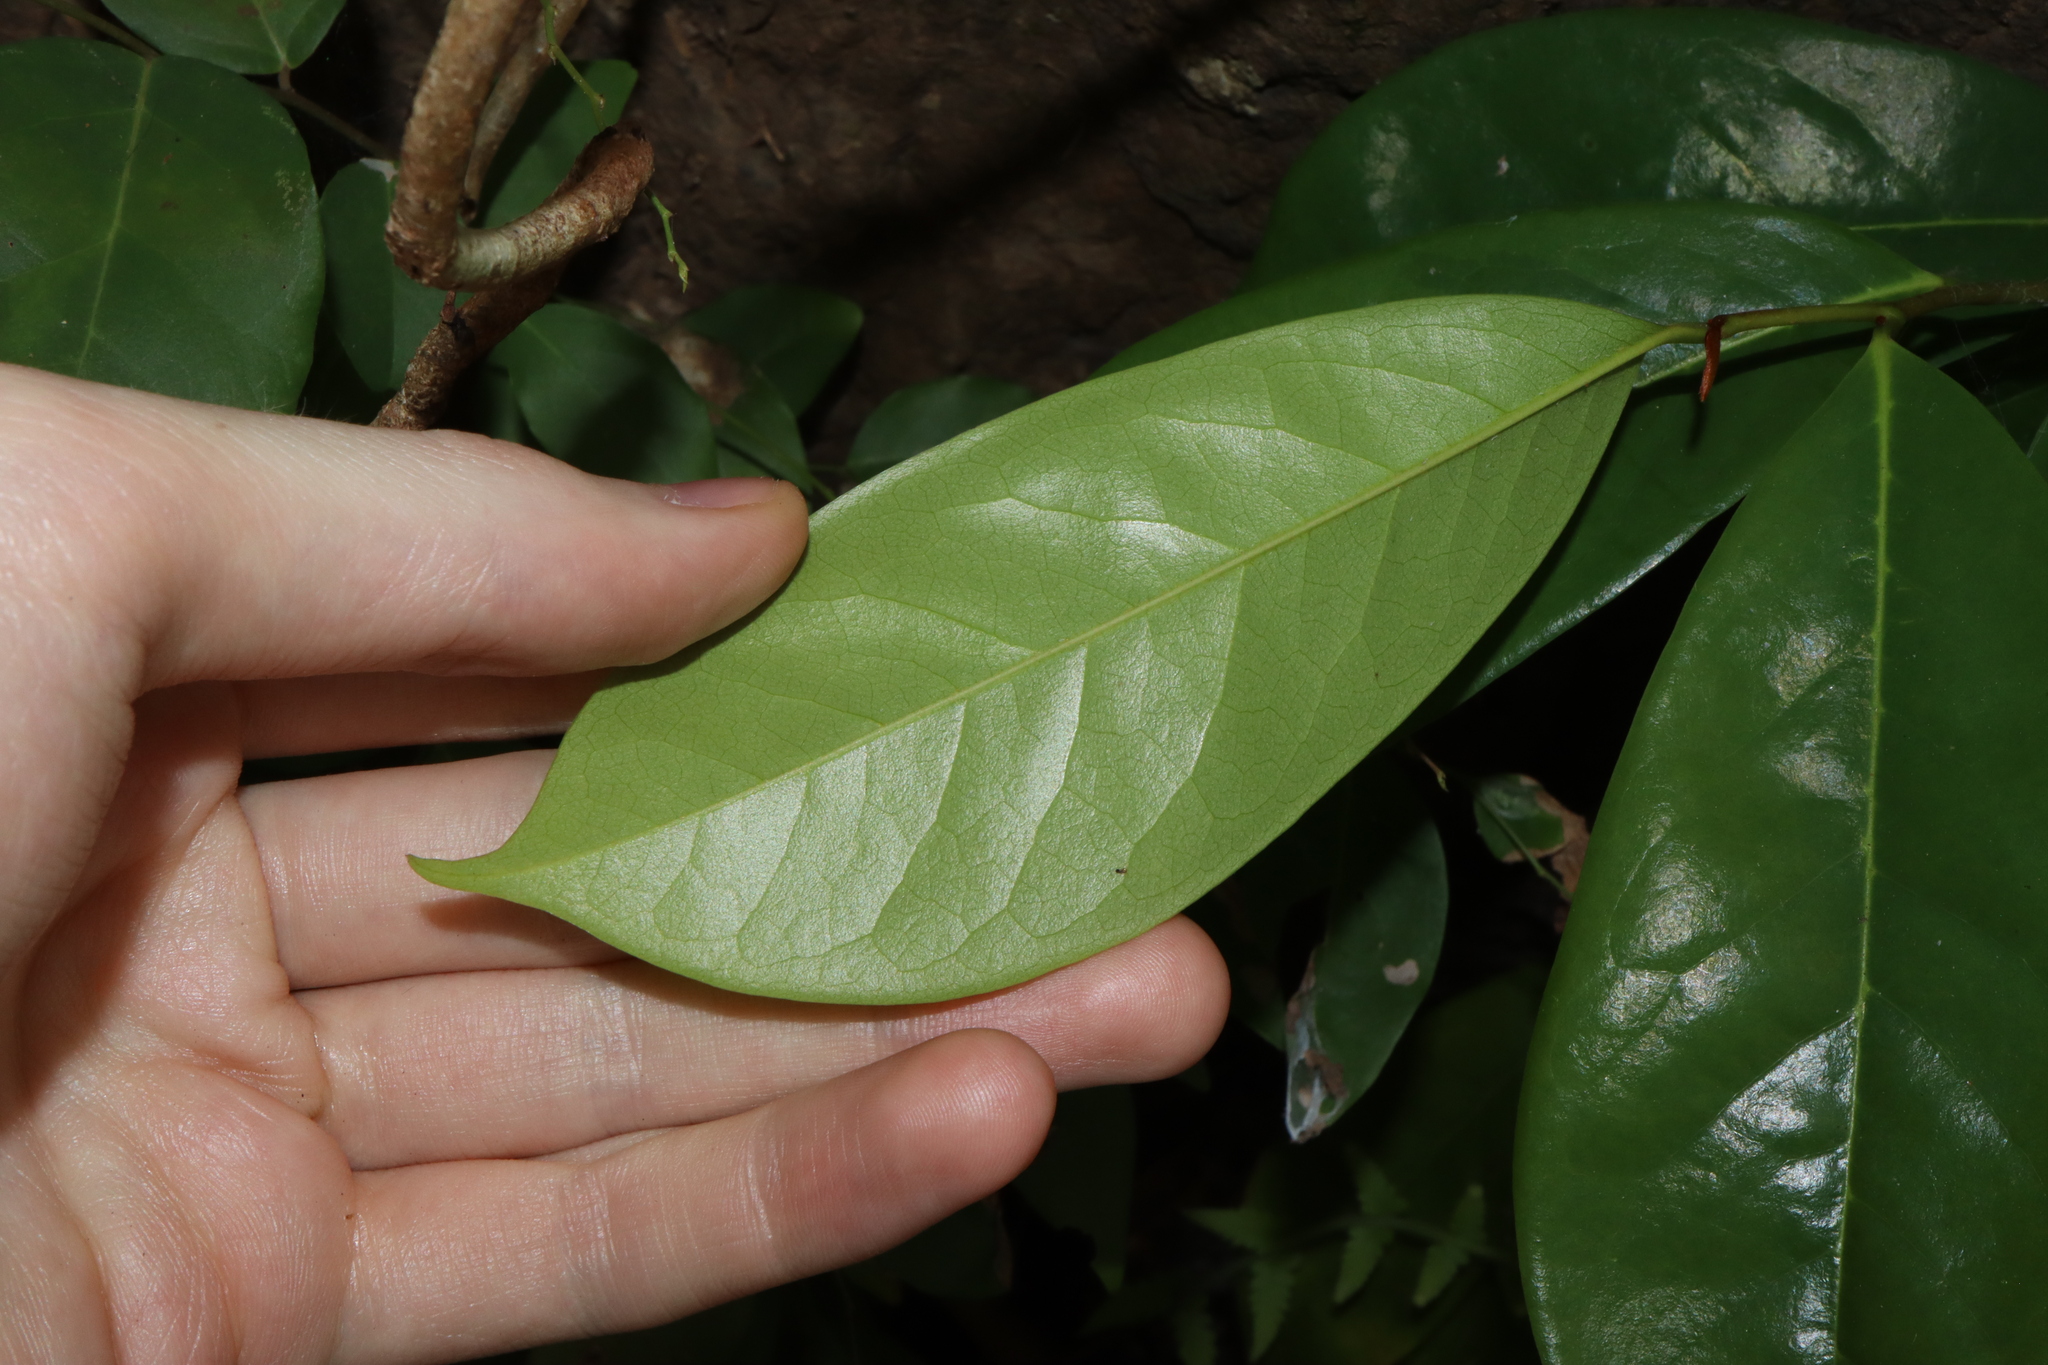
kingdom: Plantae
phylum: Tracheophyta
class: Magnoliopsida
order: Magnoliales
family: Eupomatiaceae
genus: Eupomatia
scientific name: Eupomatia laurina
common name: Bolwarra
